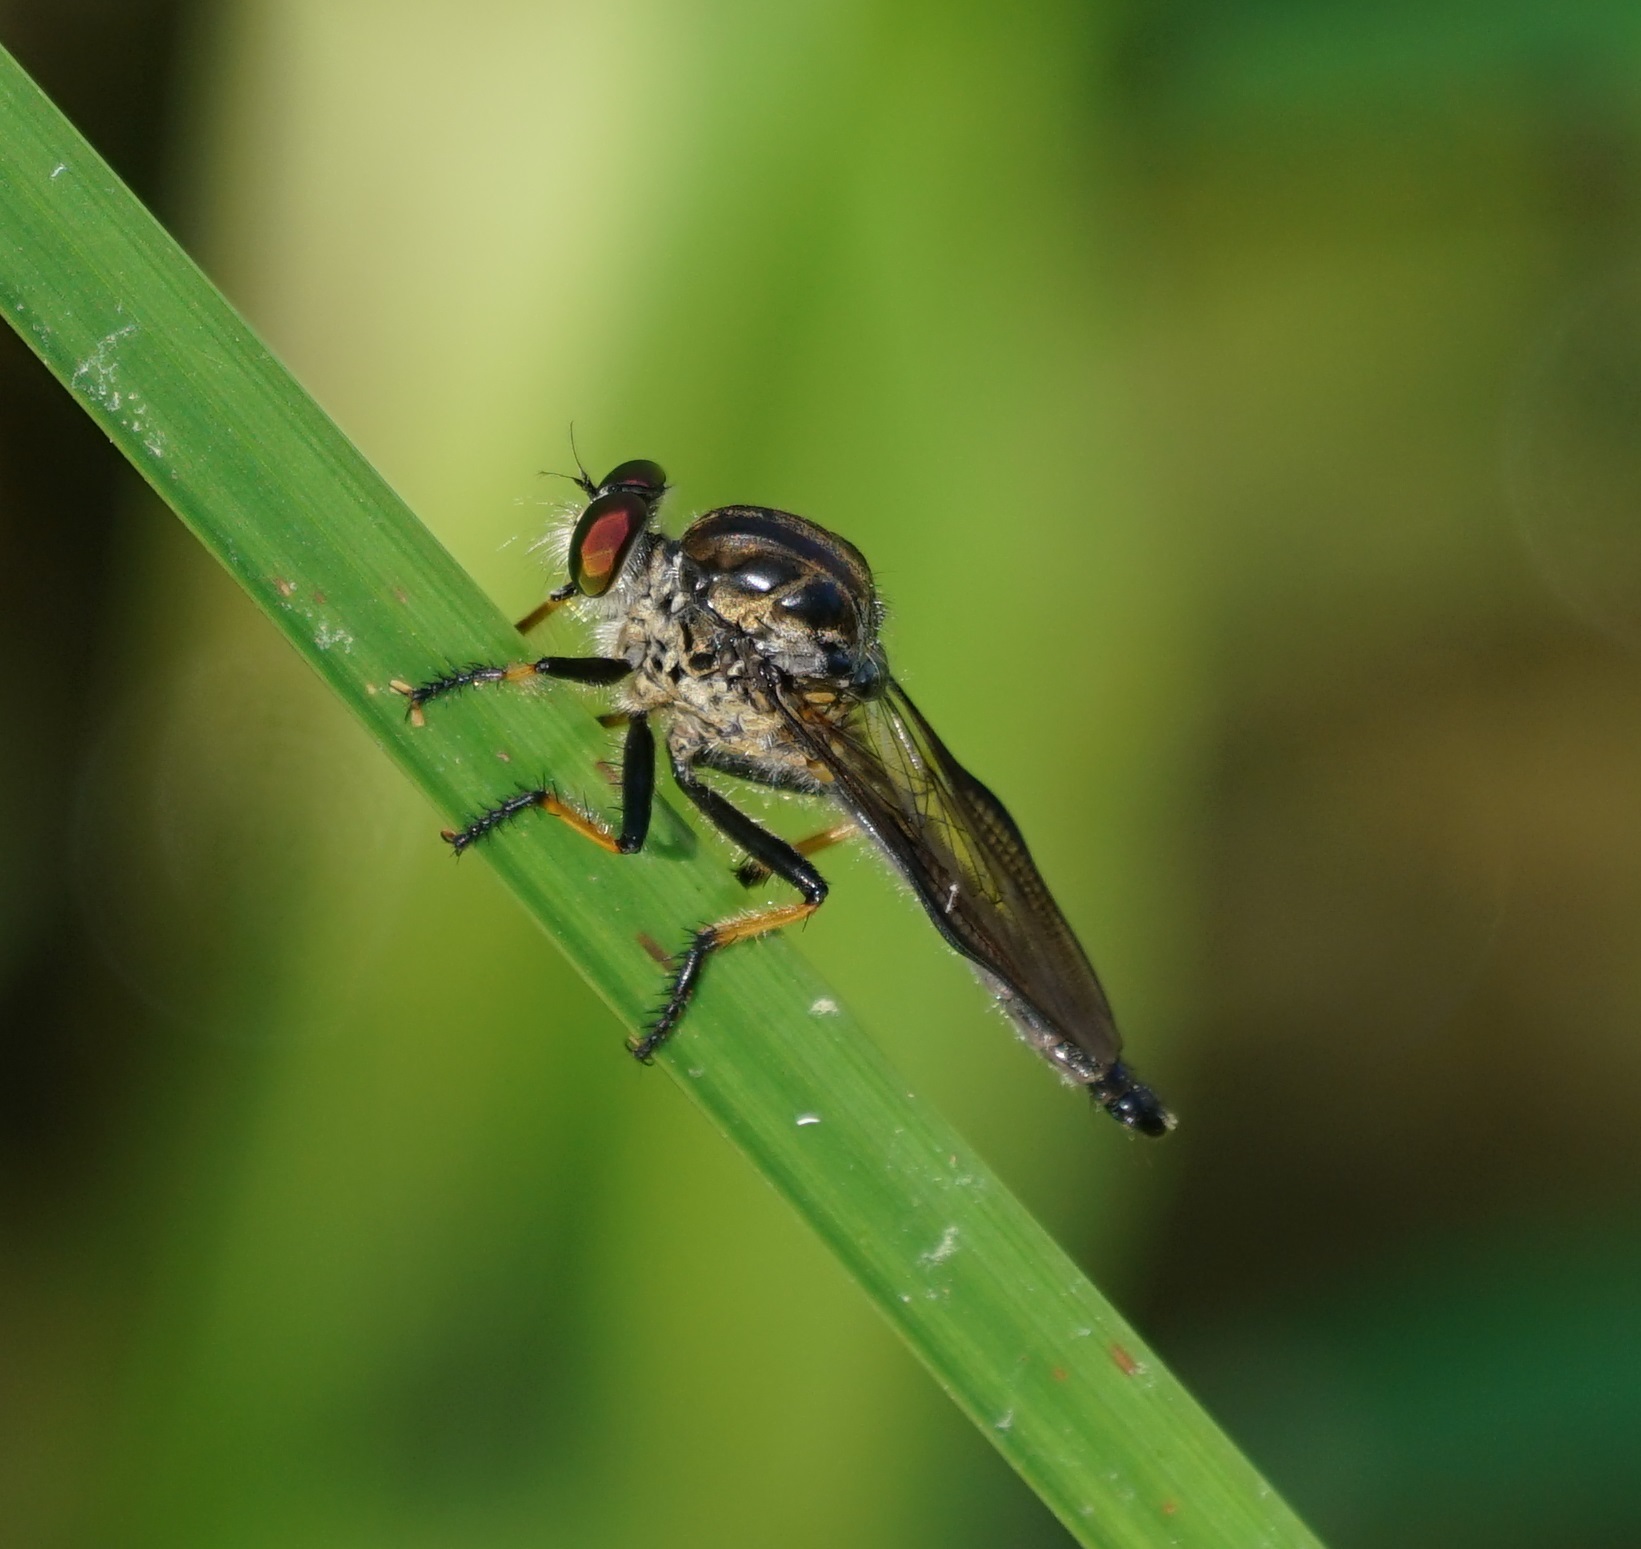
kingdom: Animalia
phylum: Arthropoda
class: Insecta
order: Diptera
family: Asilidae
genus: Ommatius
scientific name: Ommatius coeraebus
